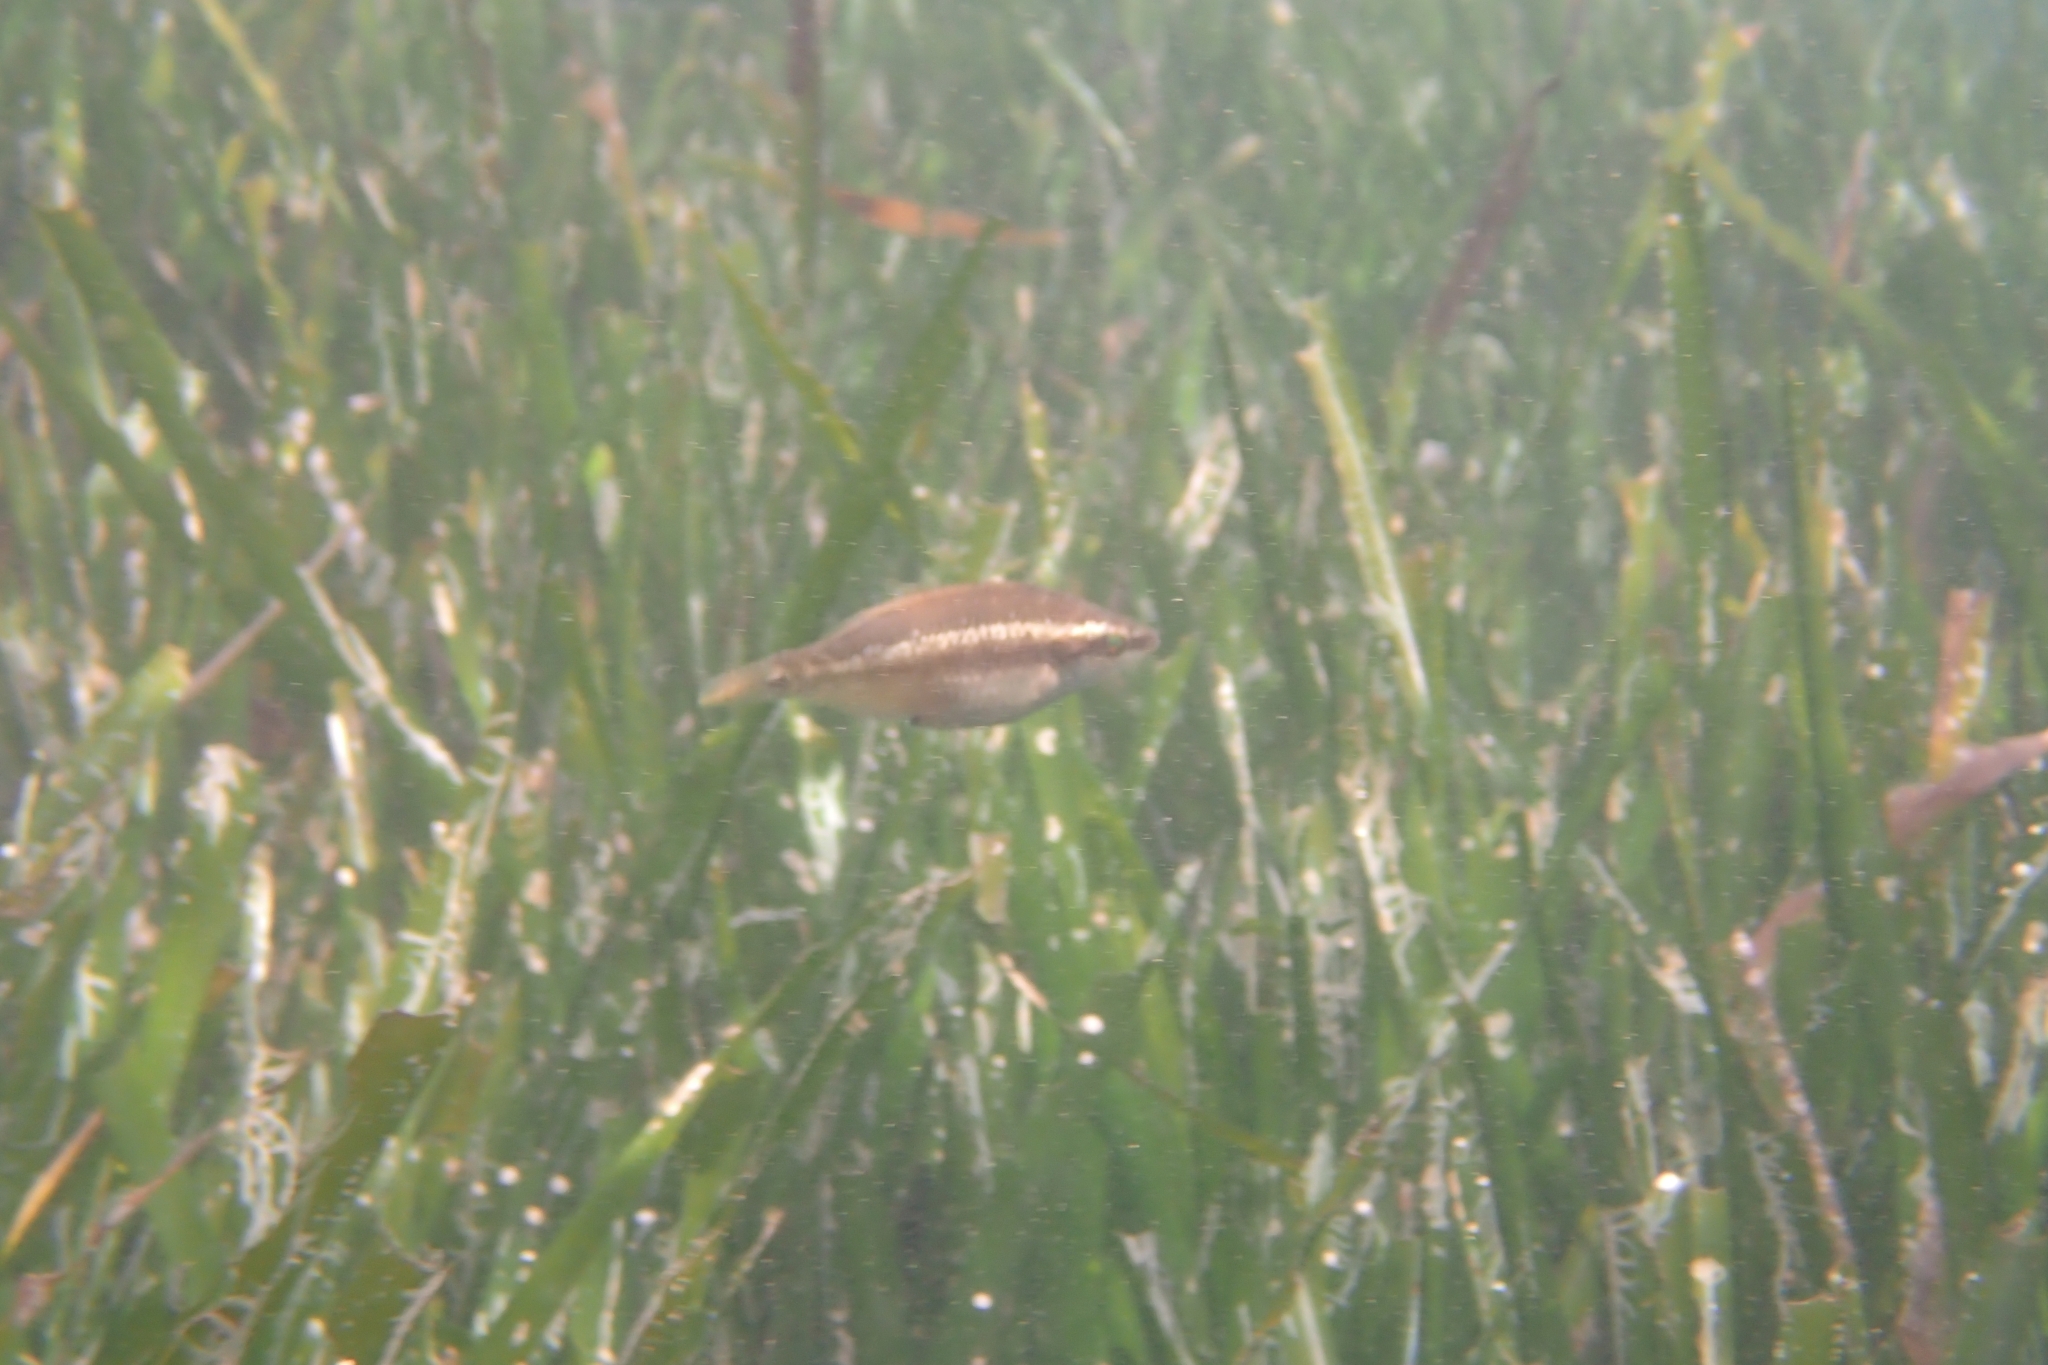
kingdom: Animalia
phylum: Chordata
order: Perciformes
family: Labridae
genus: Symphodus
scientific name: Symphodus ocellatus
